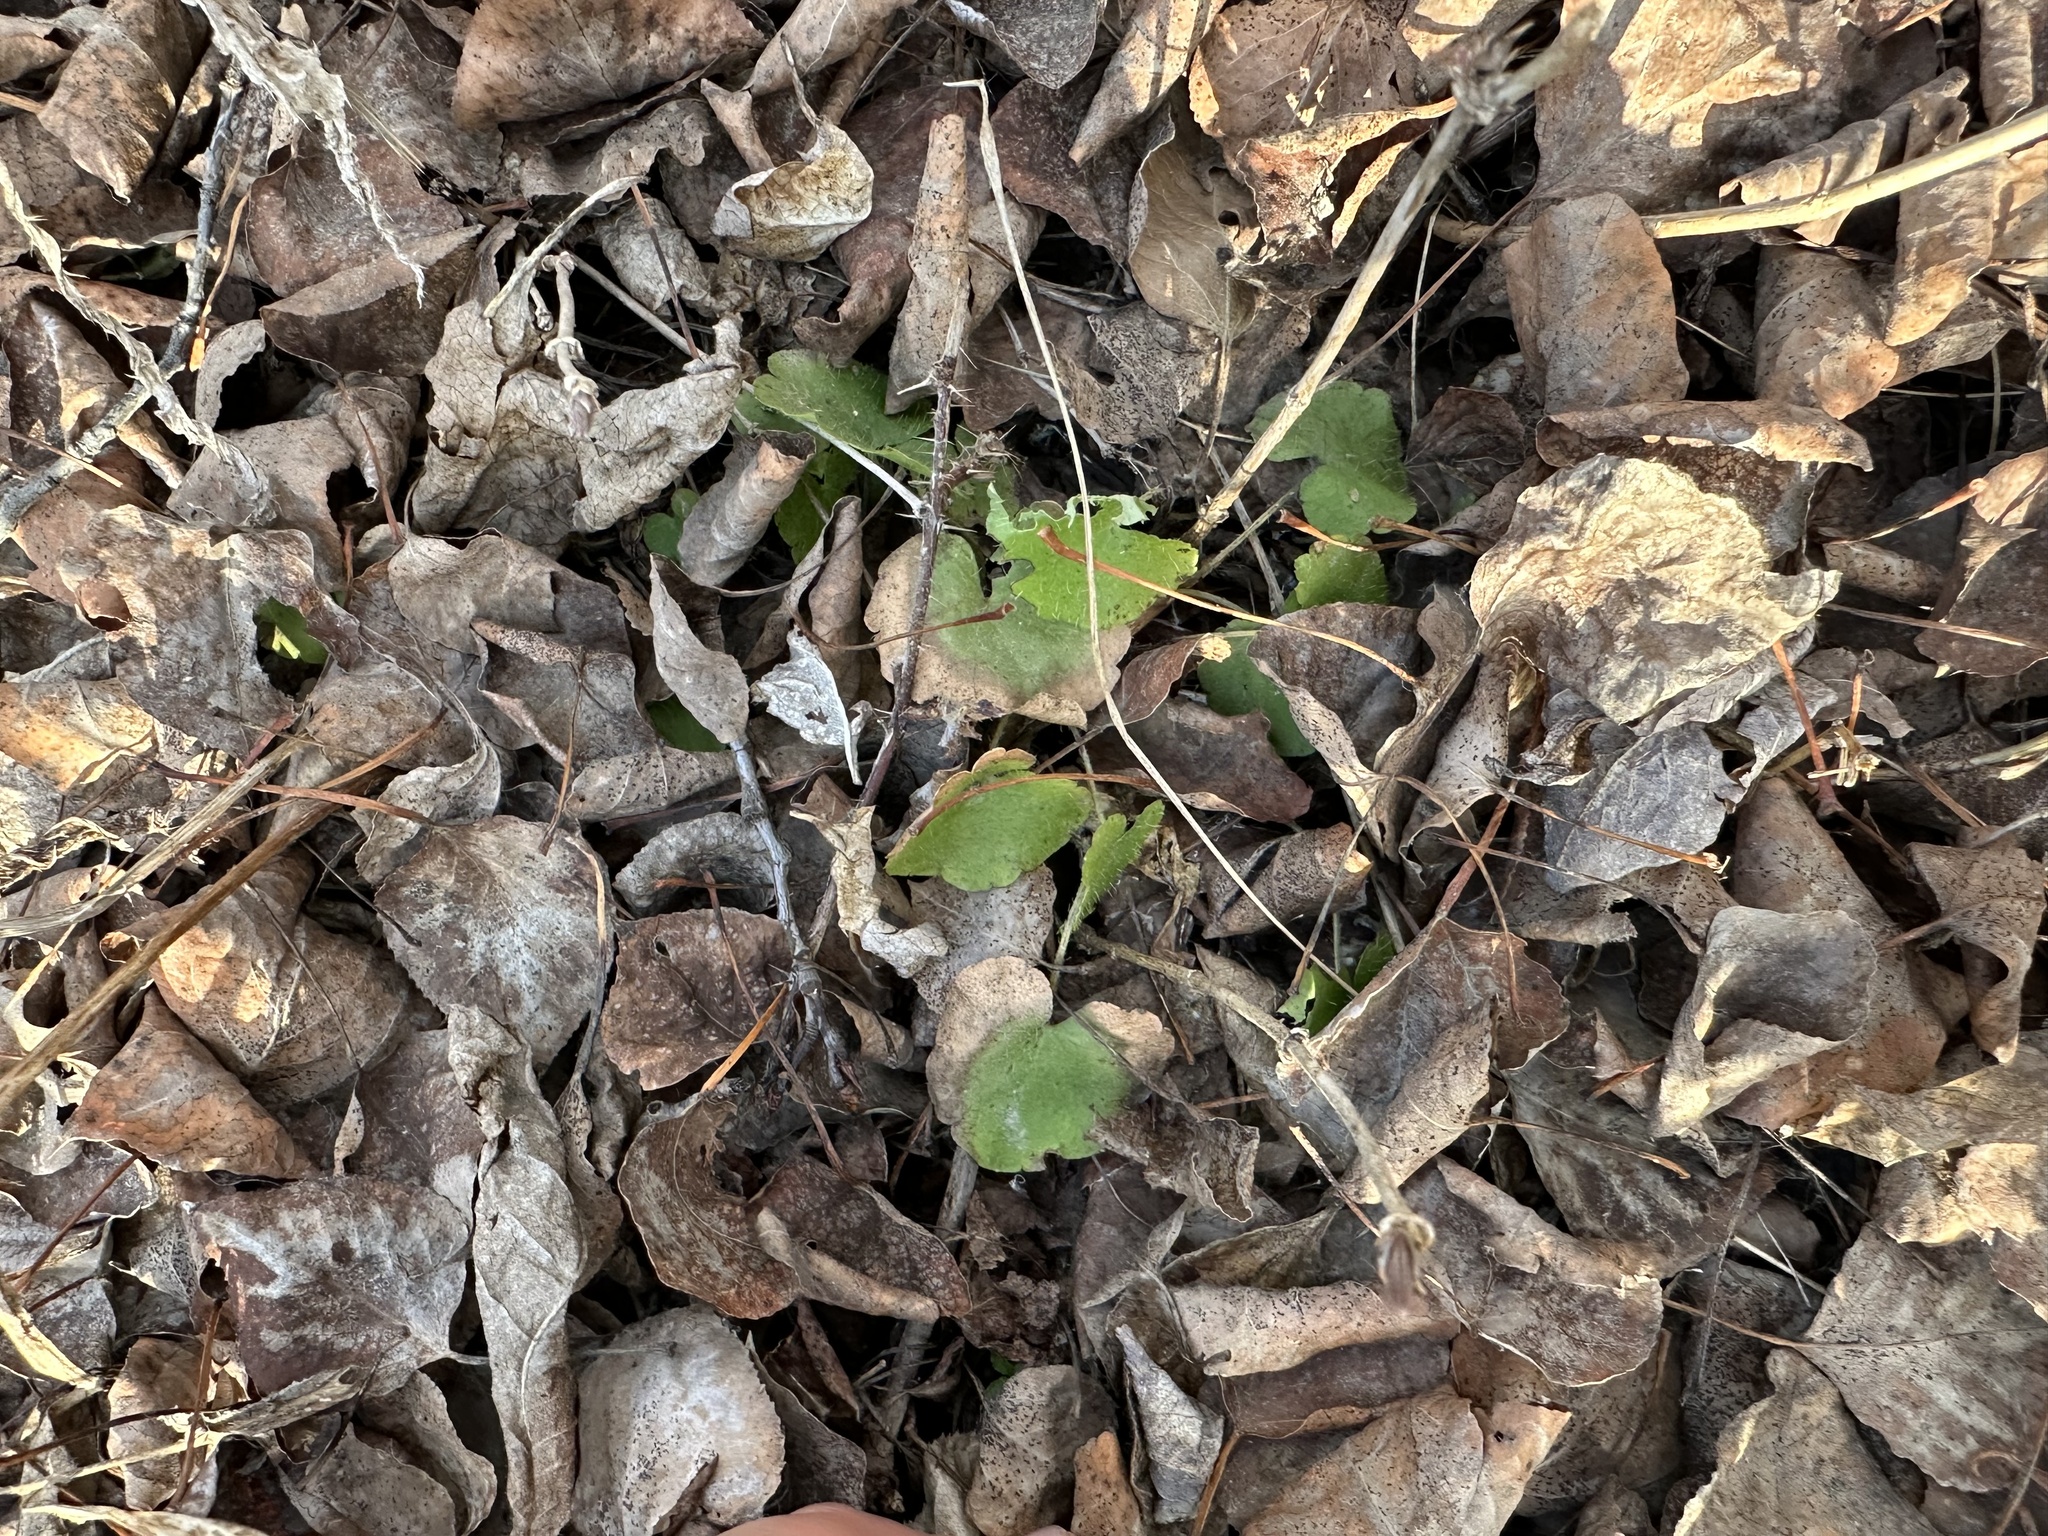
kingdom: Plantae
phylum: Tracheophyta
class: Magnoliopsida
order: Saxifragales
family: Saxifragaceae
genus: Mitella
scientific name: Mitella nuda
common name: Bare-stemmed bishop's-cap
